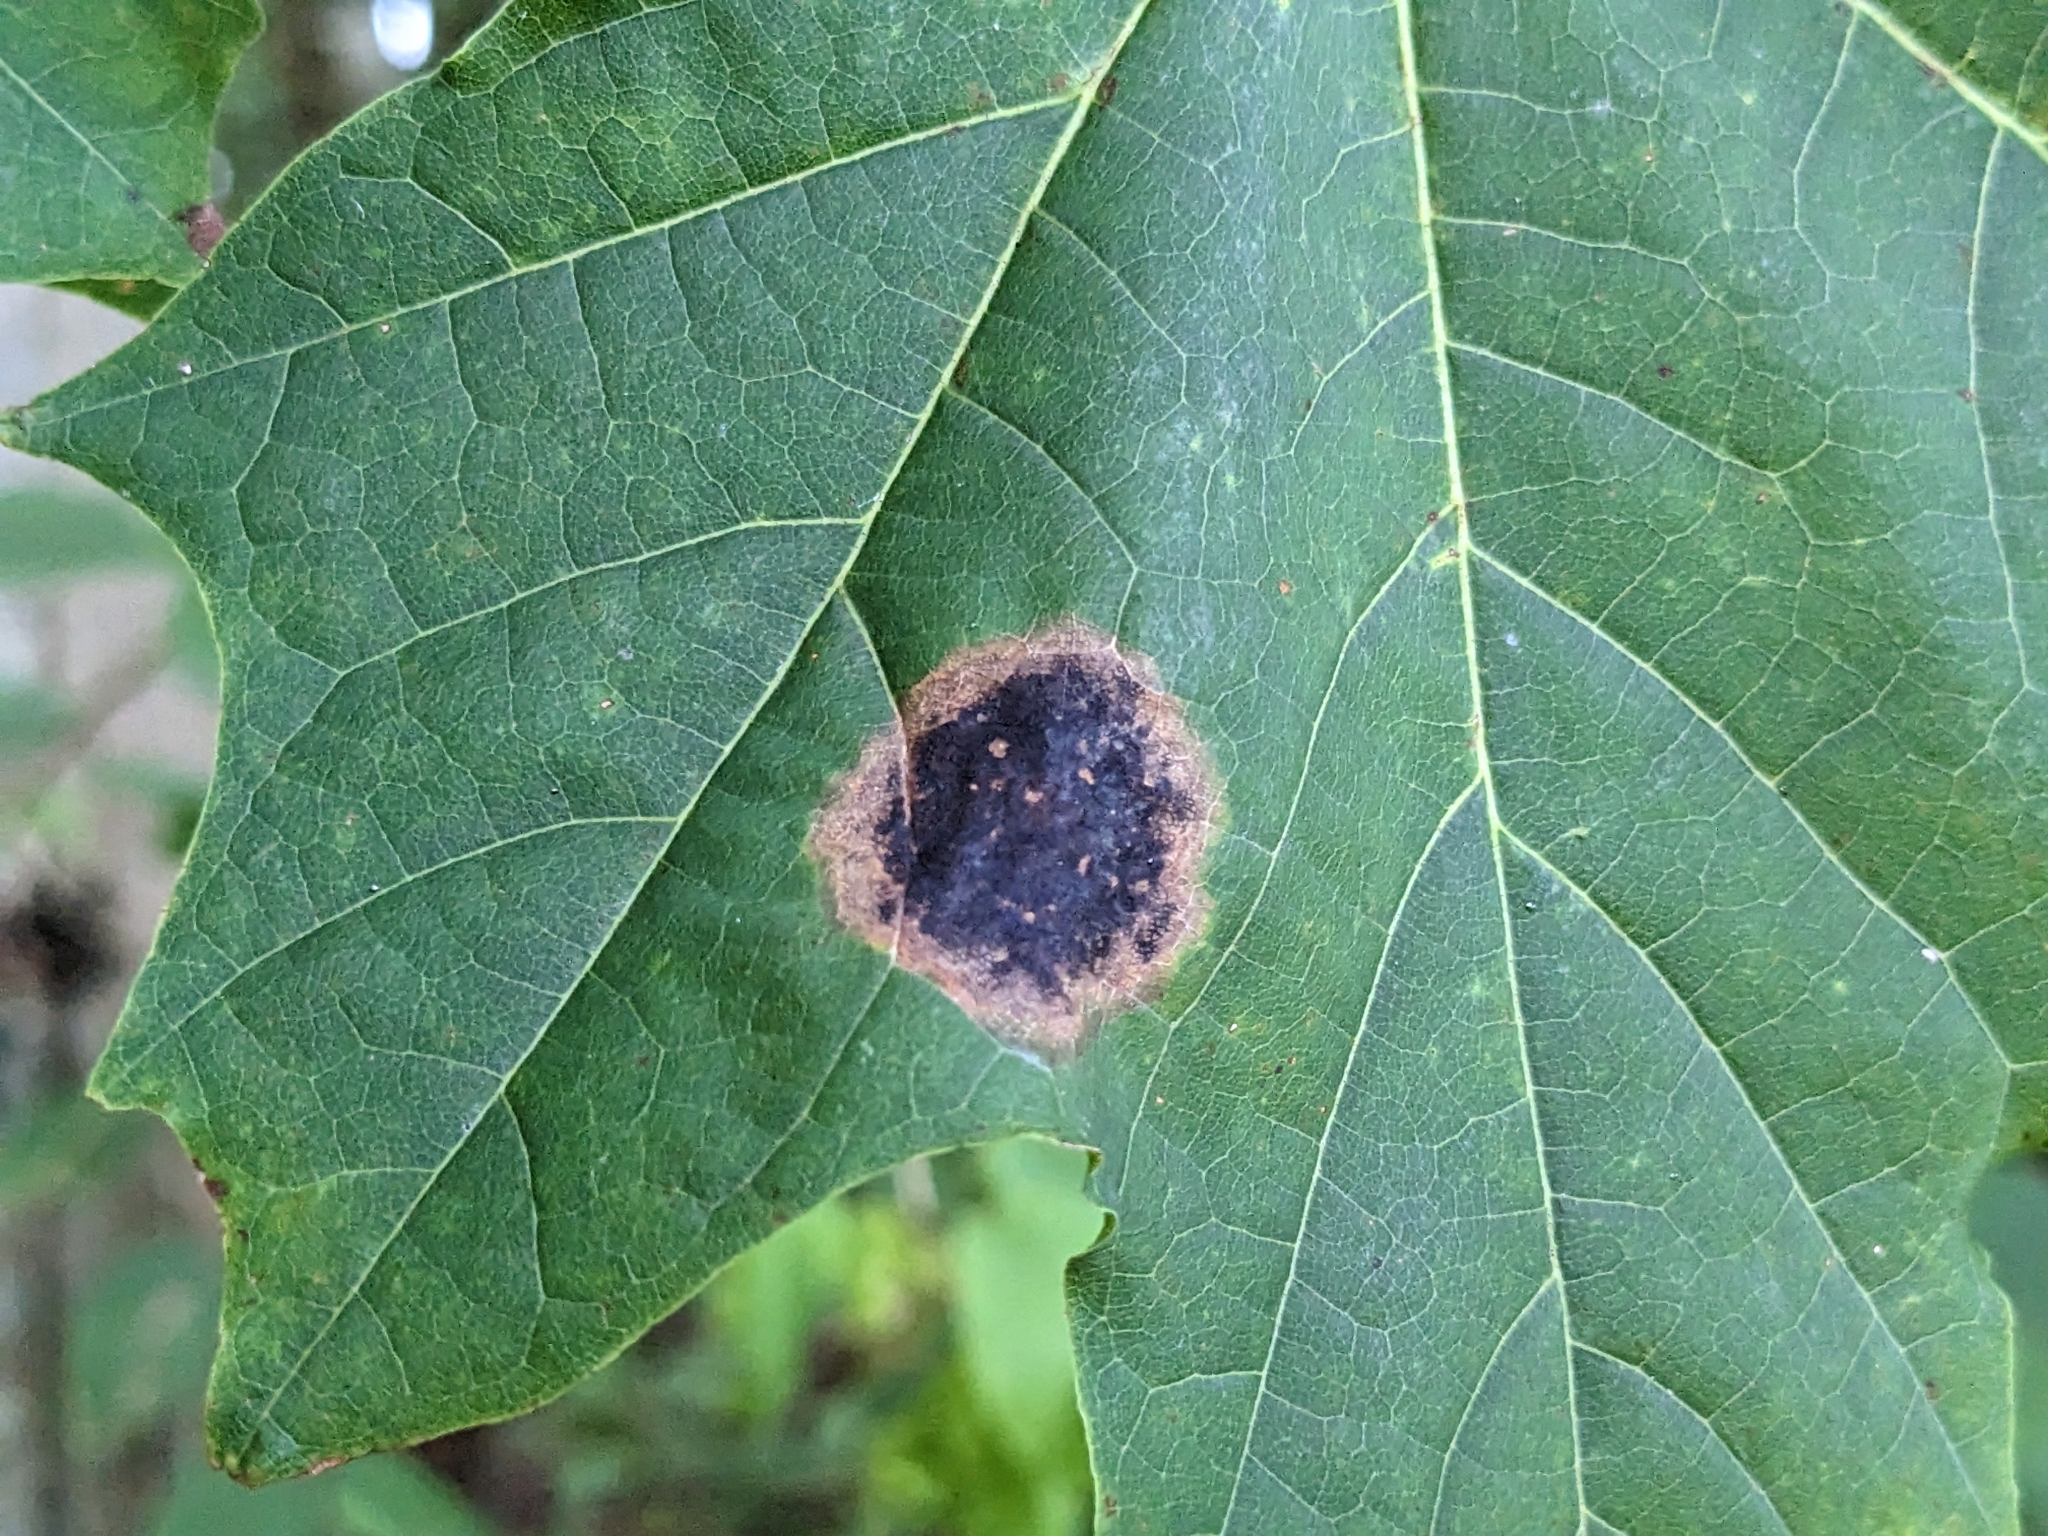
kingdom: Fungi
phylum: Ascomycota
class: Leotiomycetes
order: Rhytismatales
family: Rhytismataceae
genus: Rhytisma
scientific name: Rhytisma acerinum
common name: European tar spot
